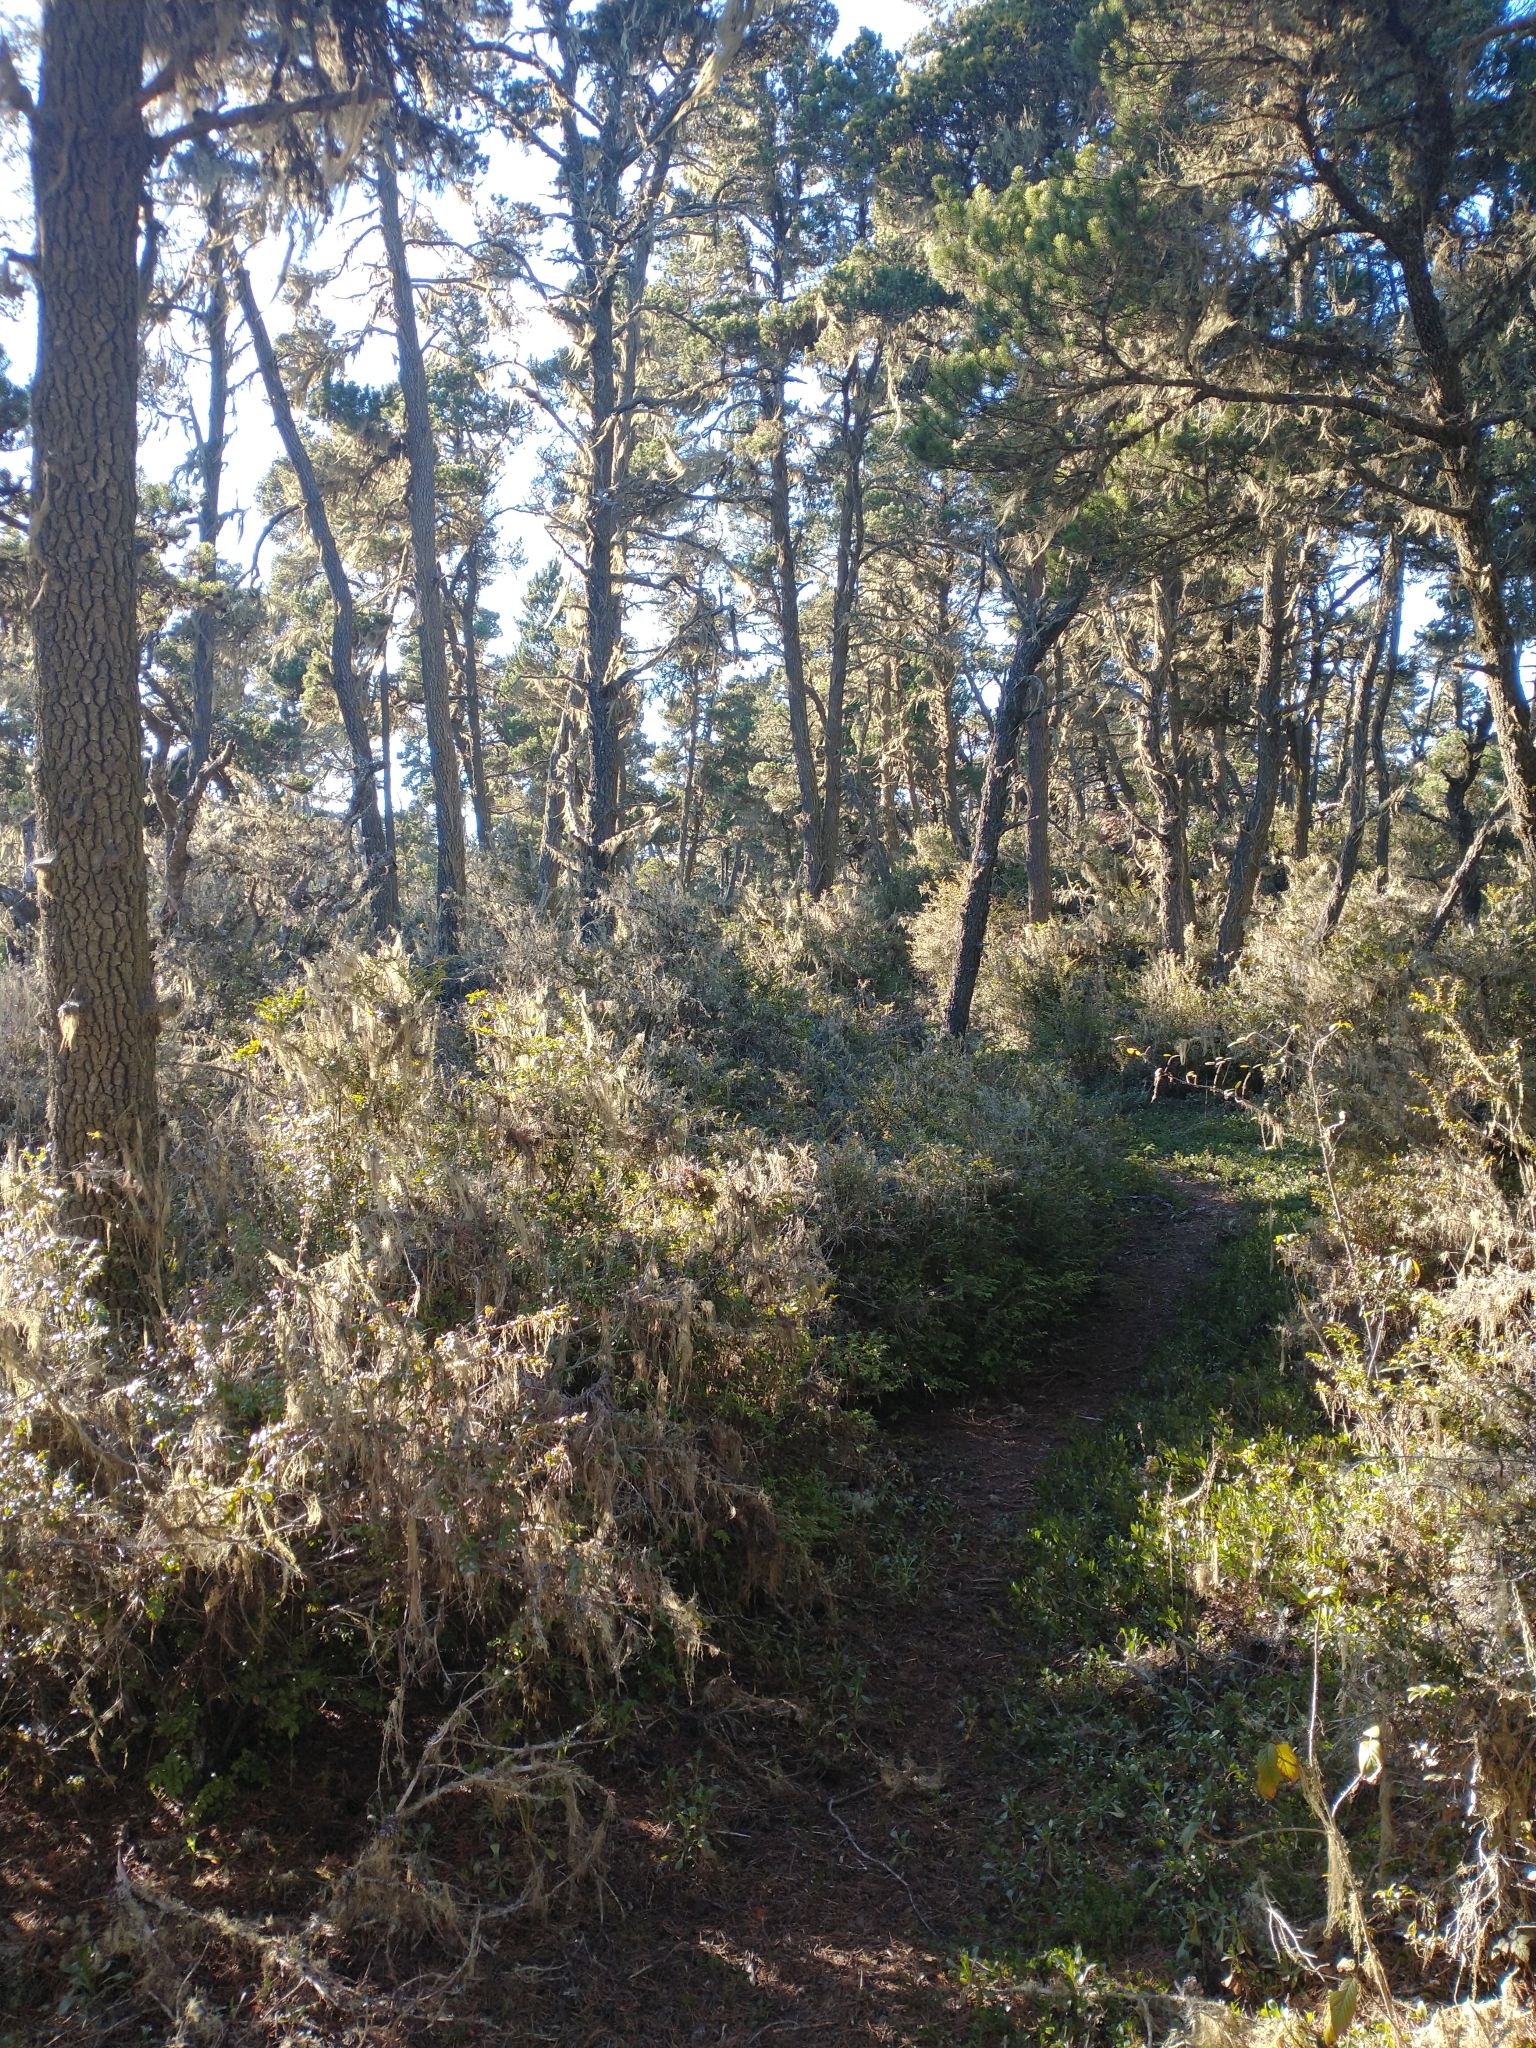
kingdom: Plantae
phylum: Tracheophyta
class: Magnoliopsida
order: Ericales
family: Ericaceae
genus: Vaccinium
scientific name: Vaccinium ovatum
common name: California-huckleberry
